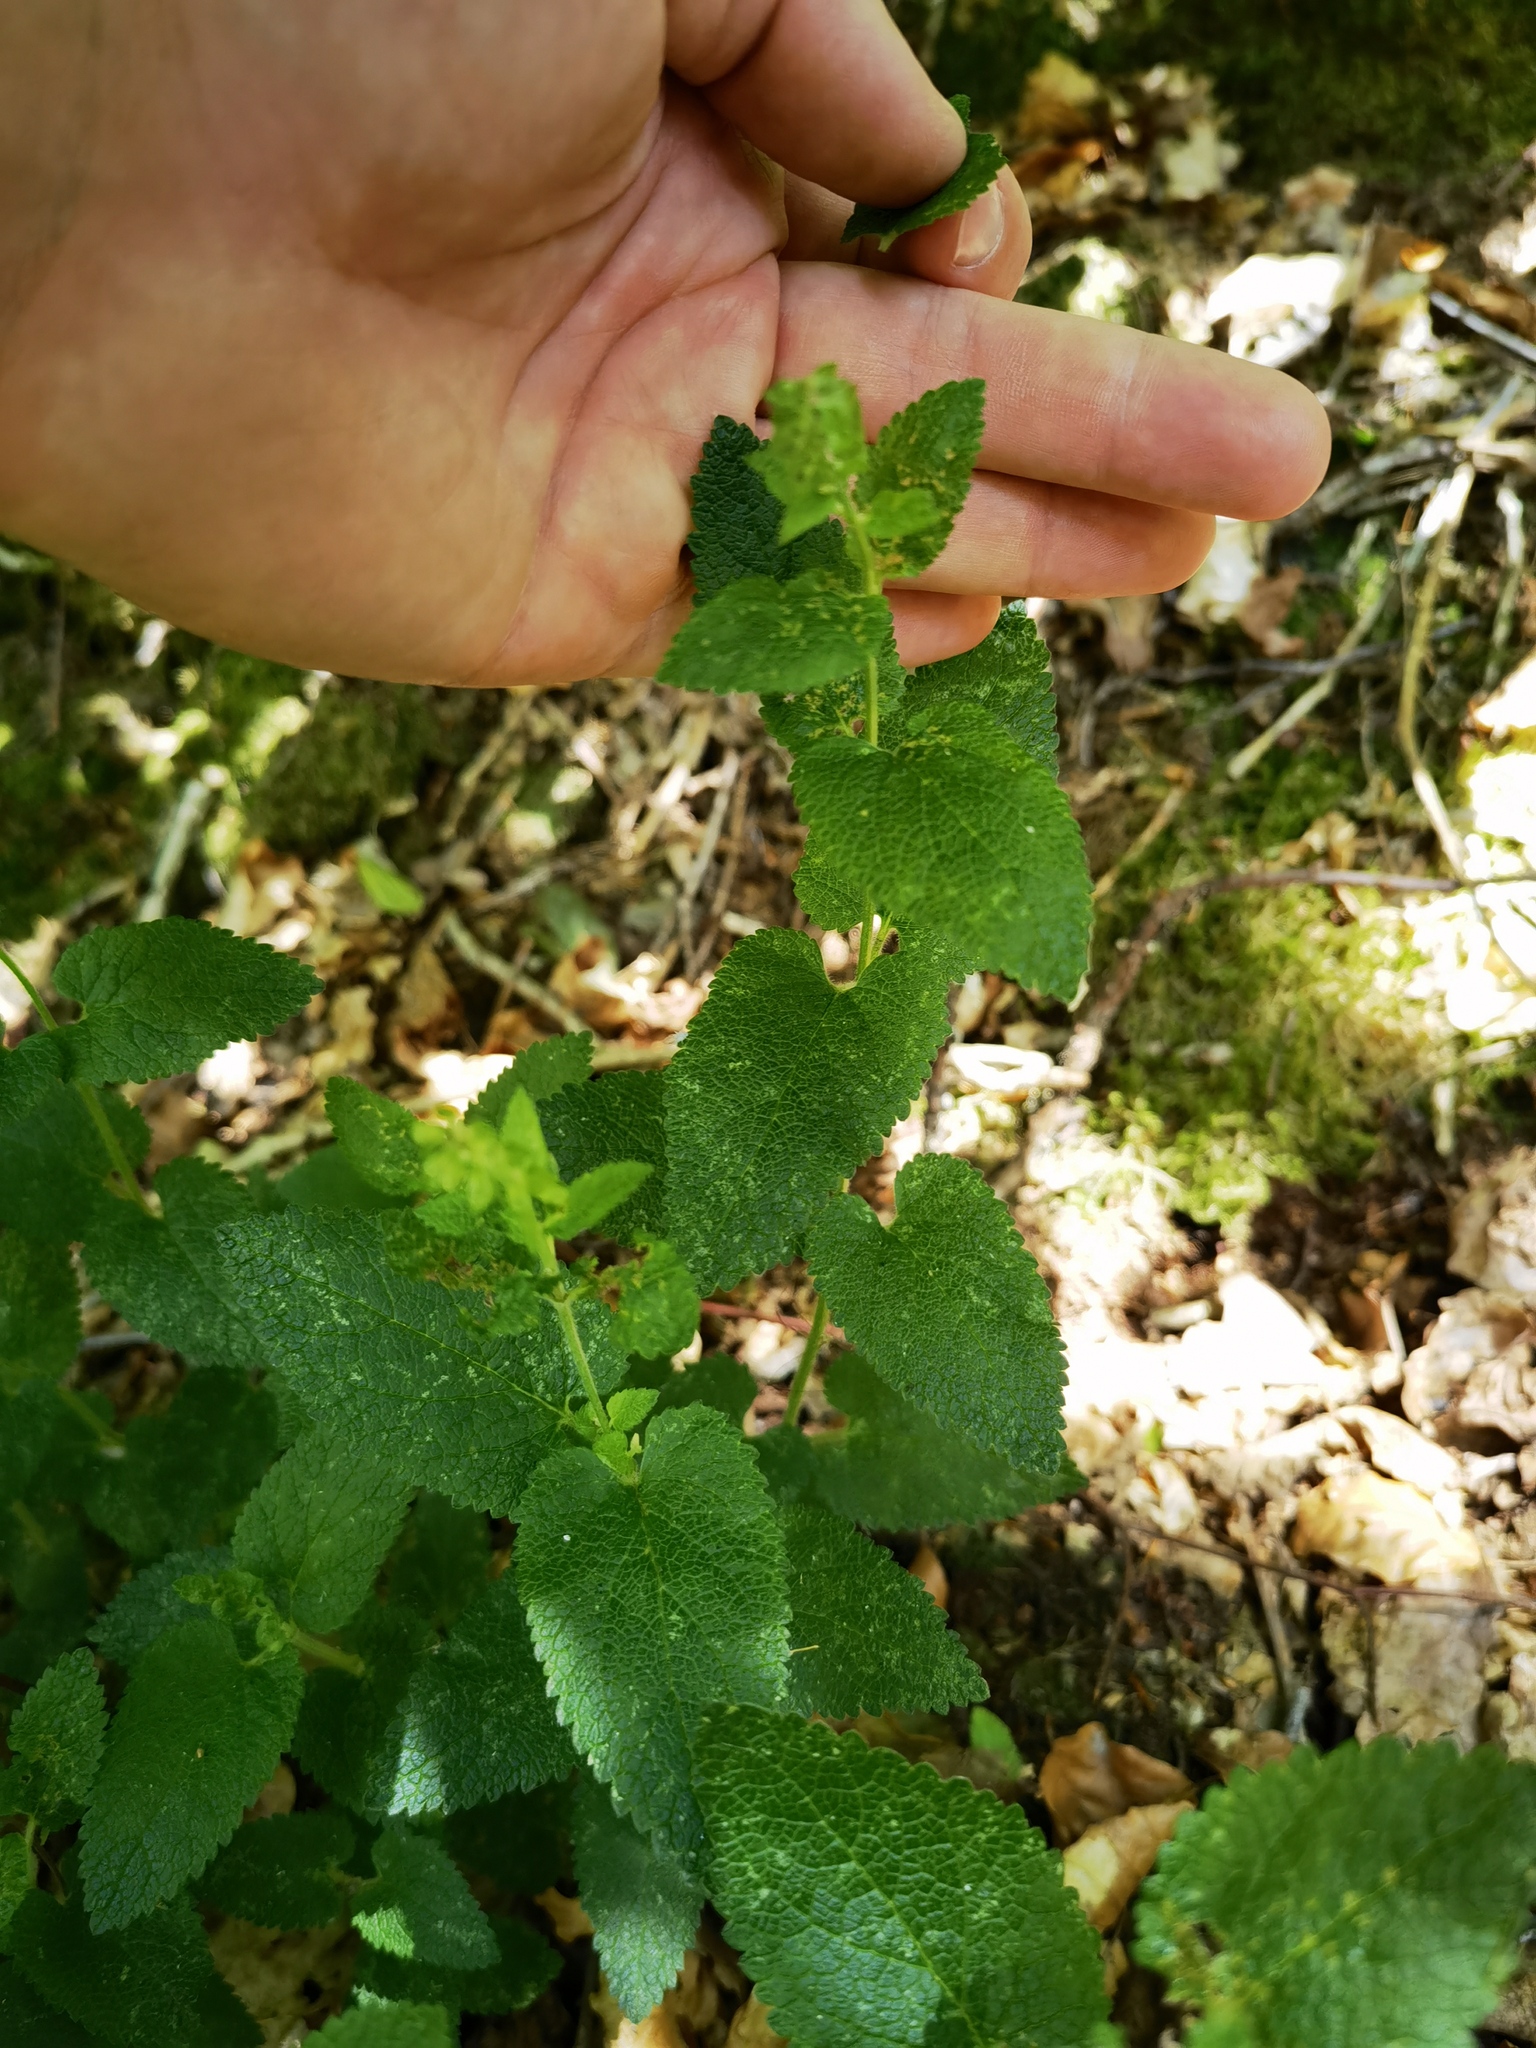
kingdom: Plantae
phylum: Tracheophyta
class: Magnoliopsida
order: Lamiales
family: Lamiaceae
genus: Teucrium
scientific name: Teucrium scorodonia
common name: Woodland germander
